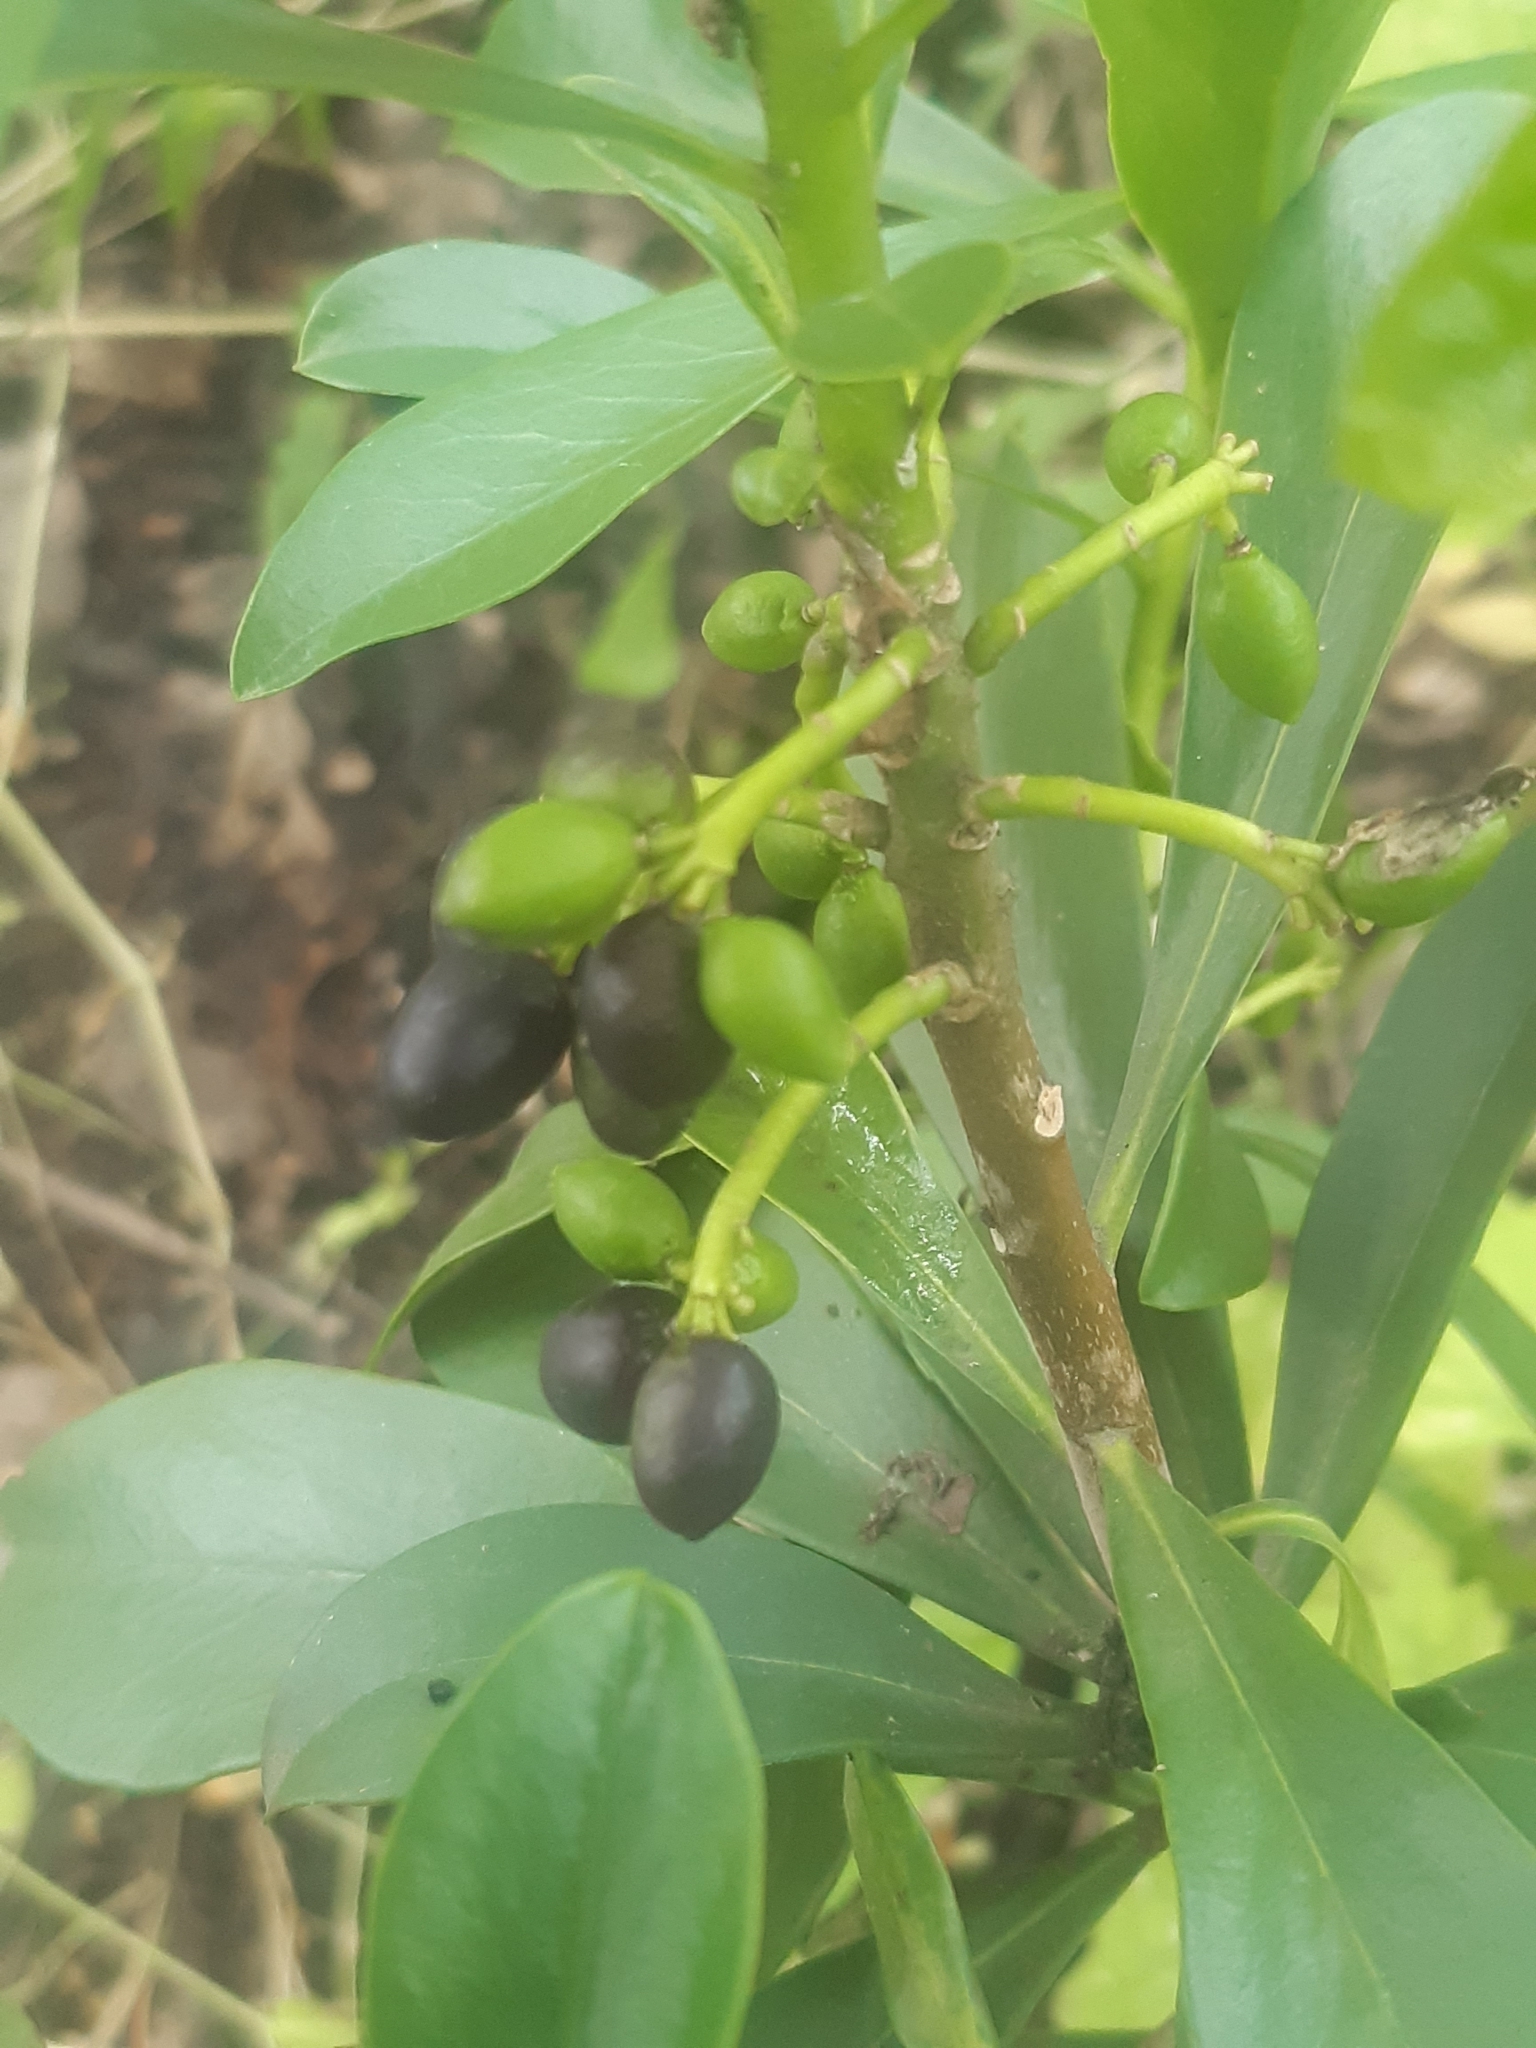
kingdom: Plantae
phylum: Tracheophyta
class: Magnoliopsida
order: Malvales
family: Thymelaeaceae
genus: Daphne
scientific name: Daphne laureola
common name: Spurge-laurel
